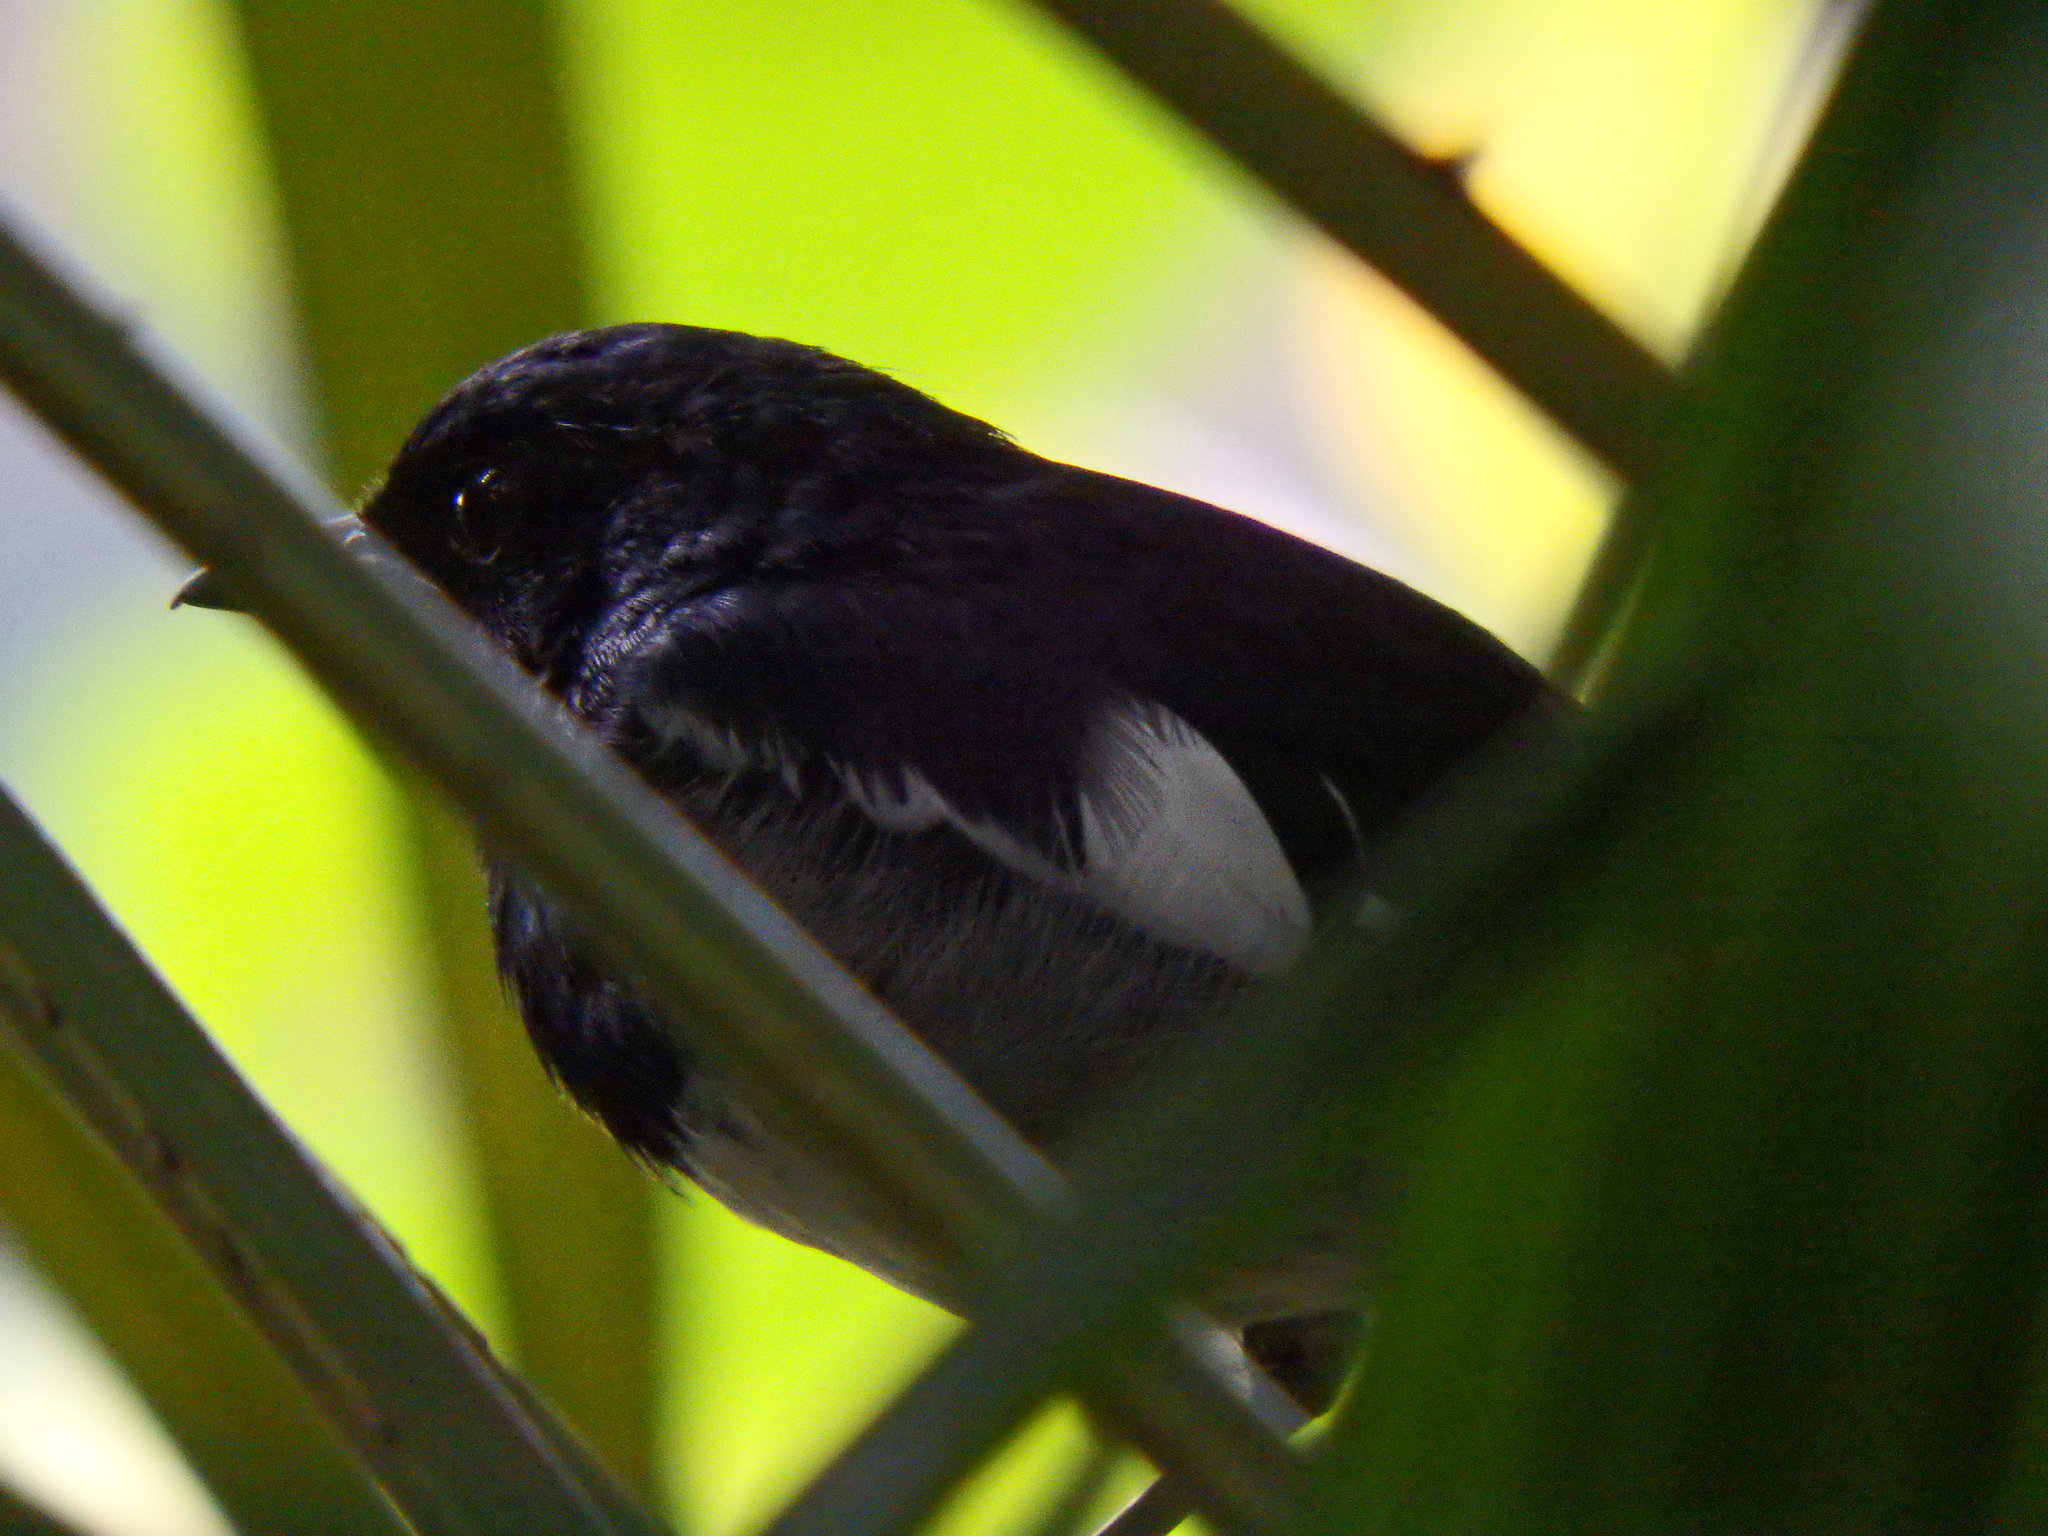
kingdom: Animalia
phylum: Chordata
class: Aves
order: Passeriformes
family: Muscicapidae
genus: Copsychus
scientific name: Copsychus saularis
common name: Oriental magpie-robin
